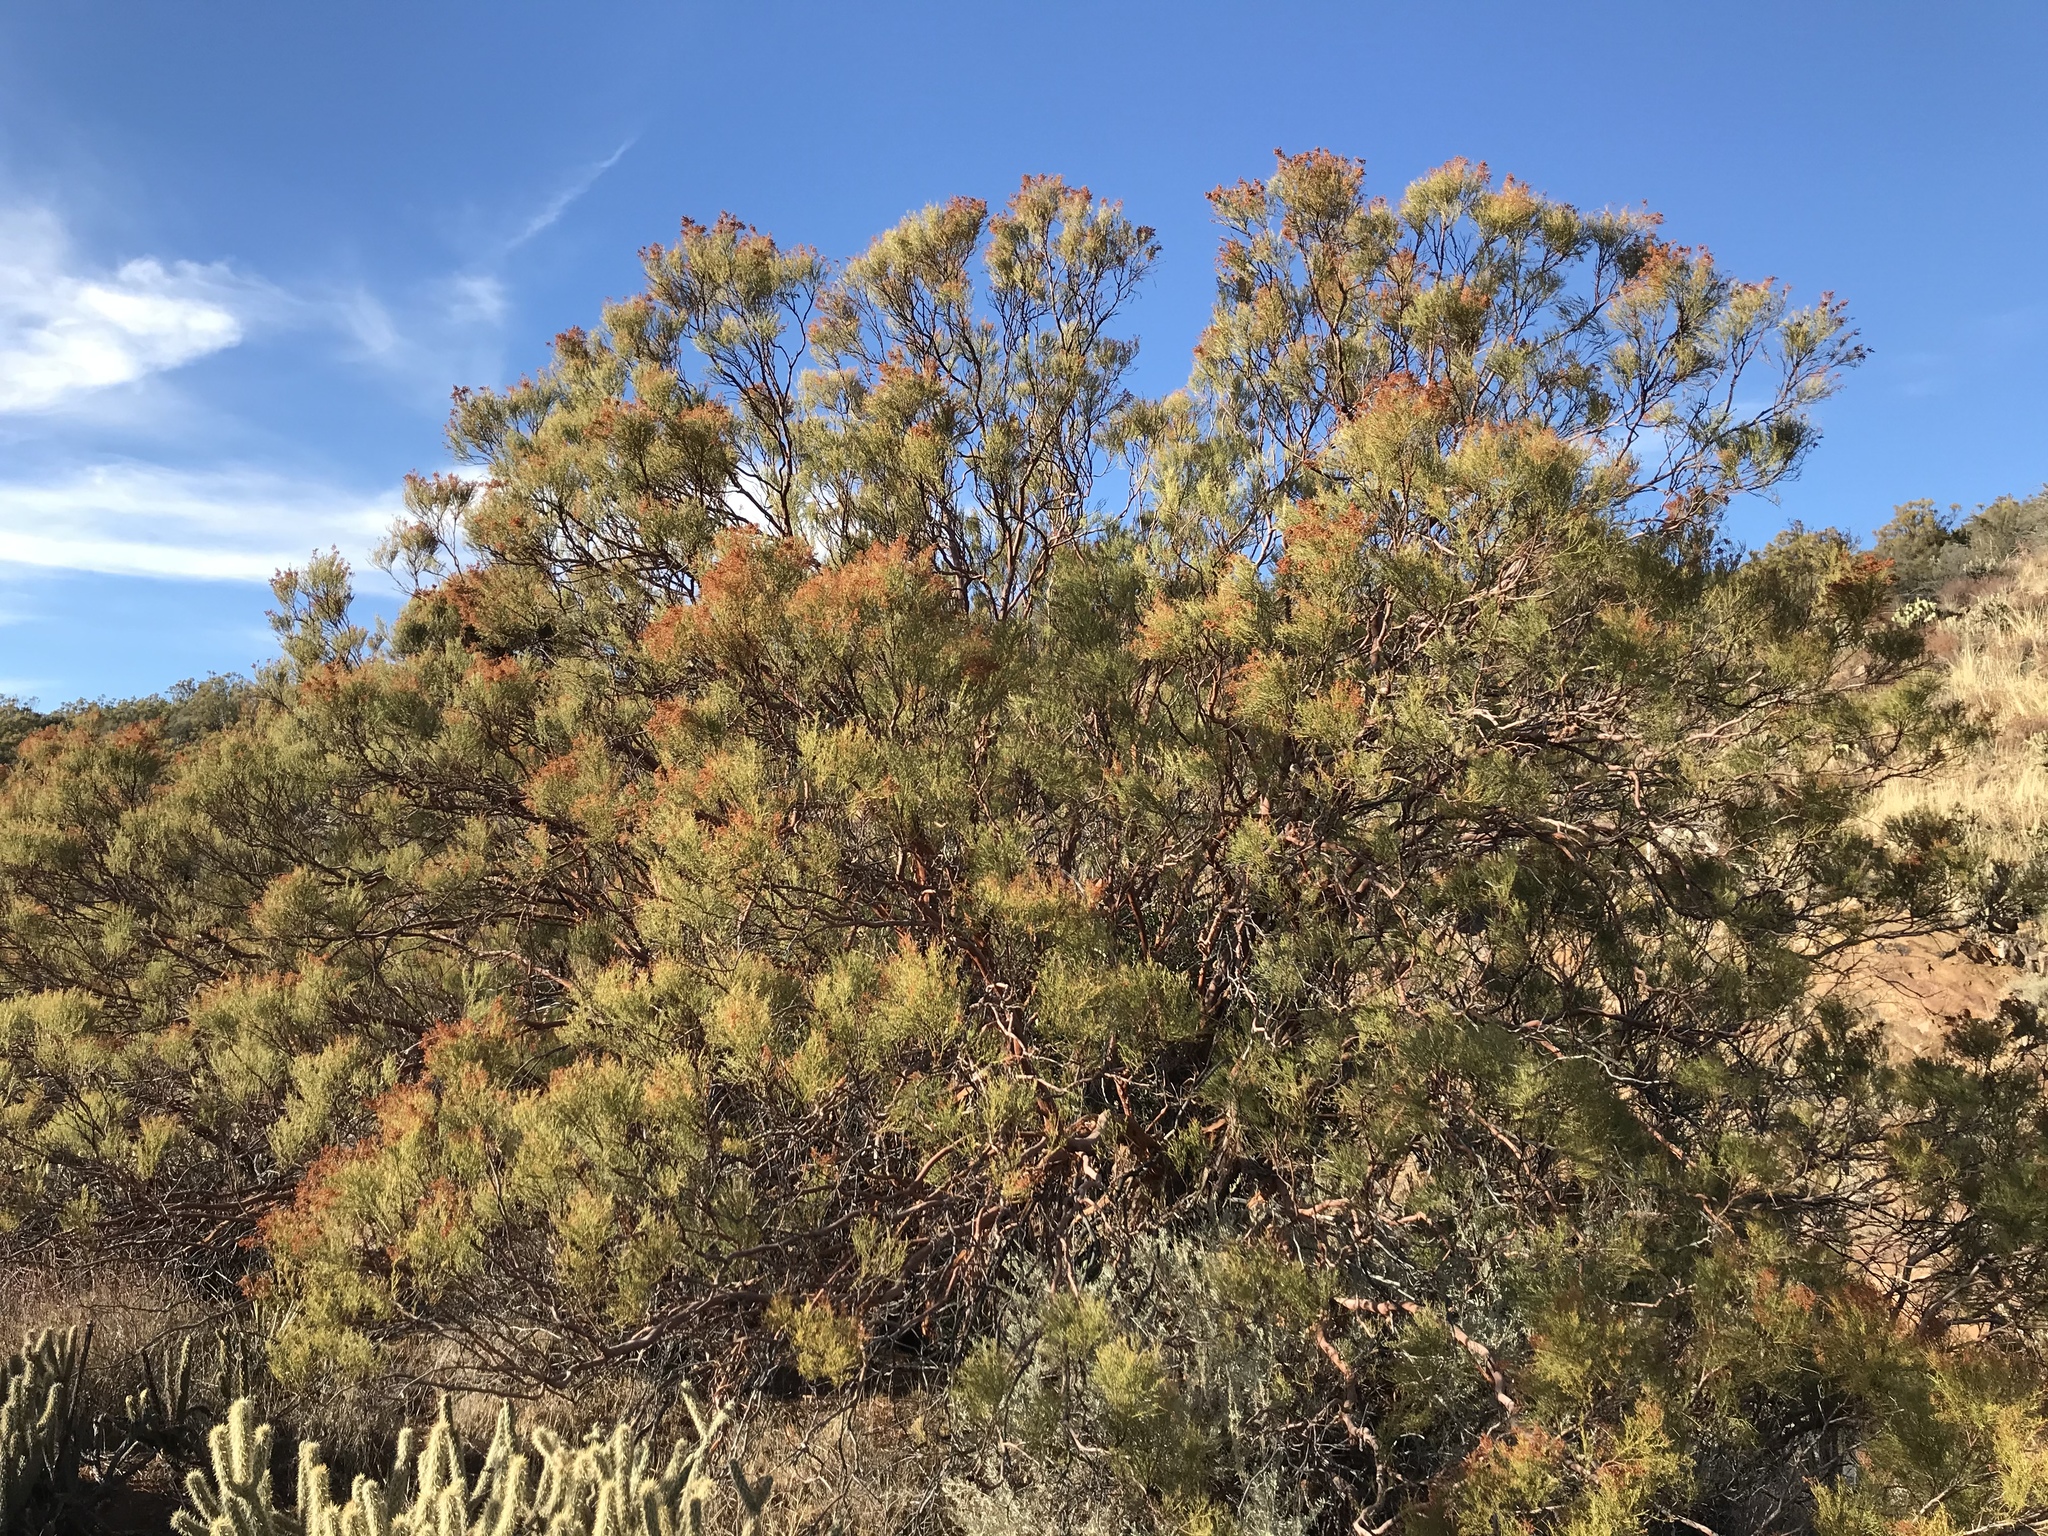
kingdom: Plantae
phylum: Tracheophyta
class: Magnoliopsida
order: Rosales
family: Rosaceae
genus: Adenostoma
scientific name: Adenostoma sparsifolium
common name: Red shank
